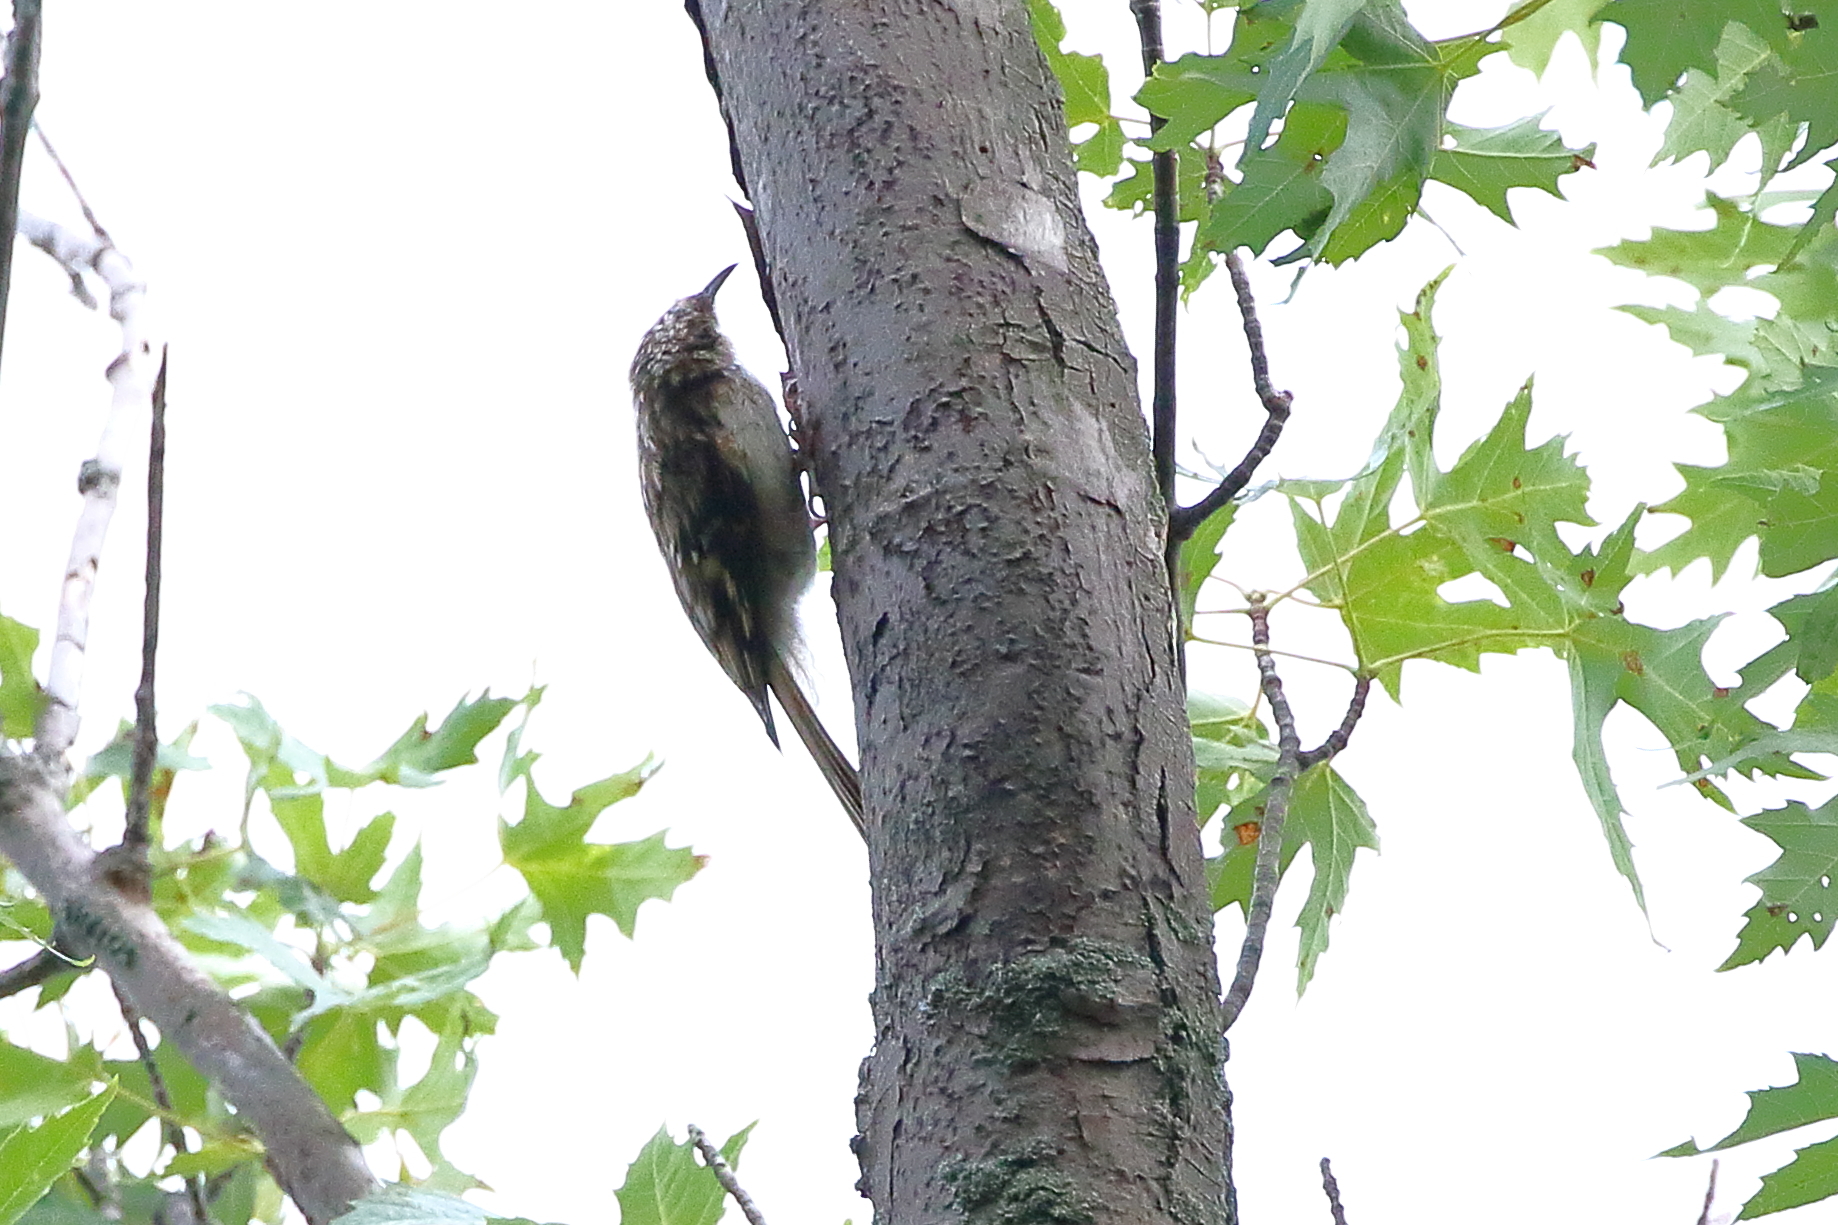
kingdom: Animalia
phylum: Chordata
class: Aves
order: Passeriformes
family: Certhiidae
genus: Certhia
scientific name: Certhia americana
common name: Brown creeper
